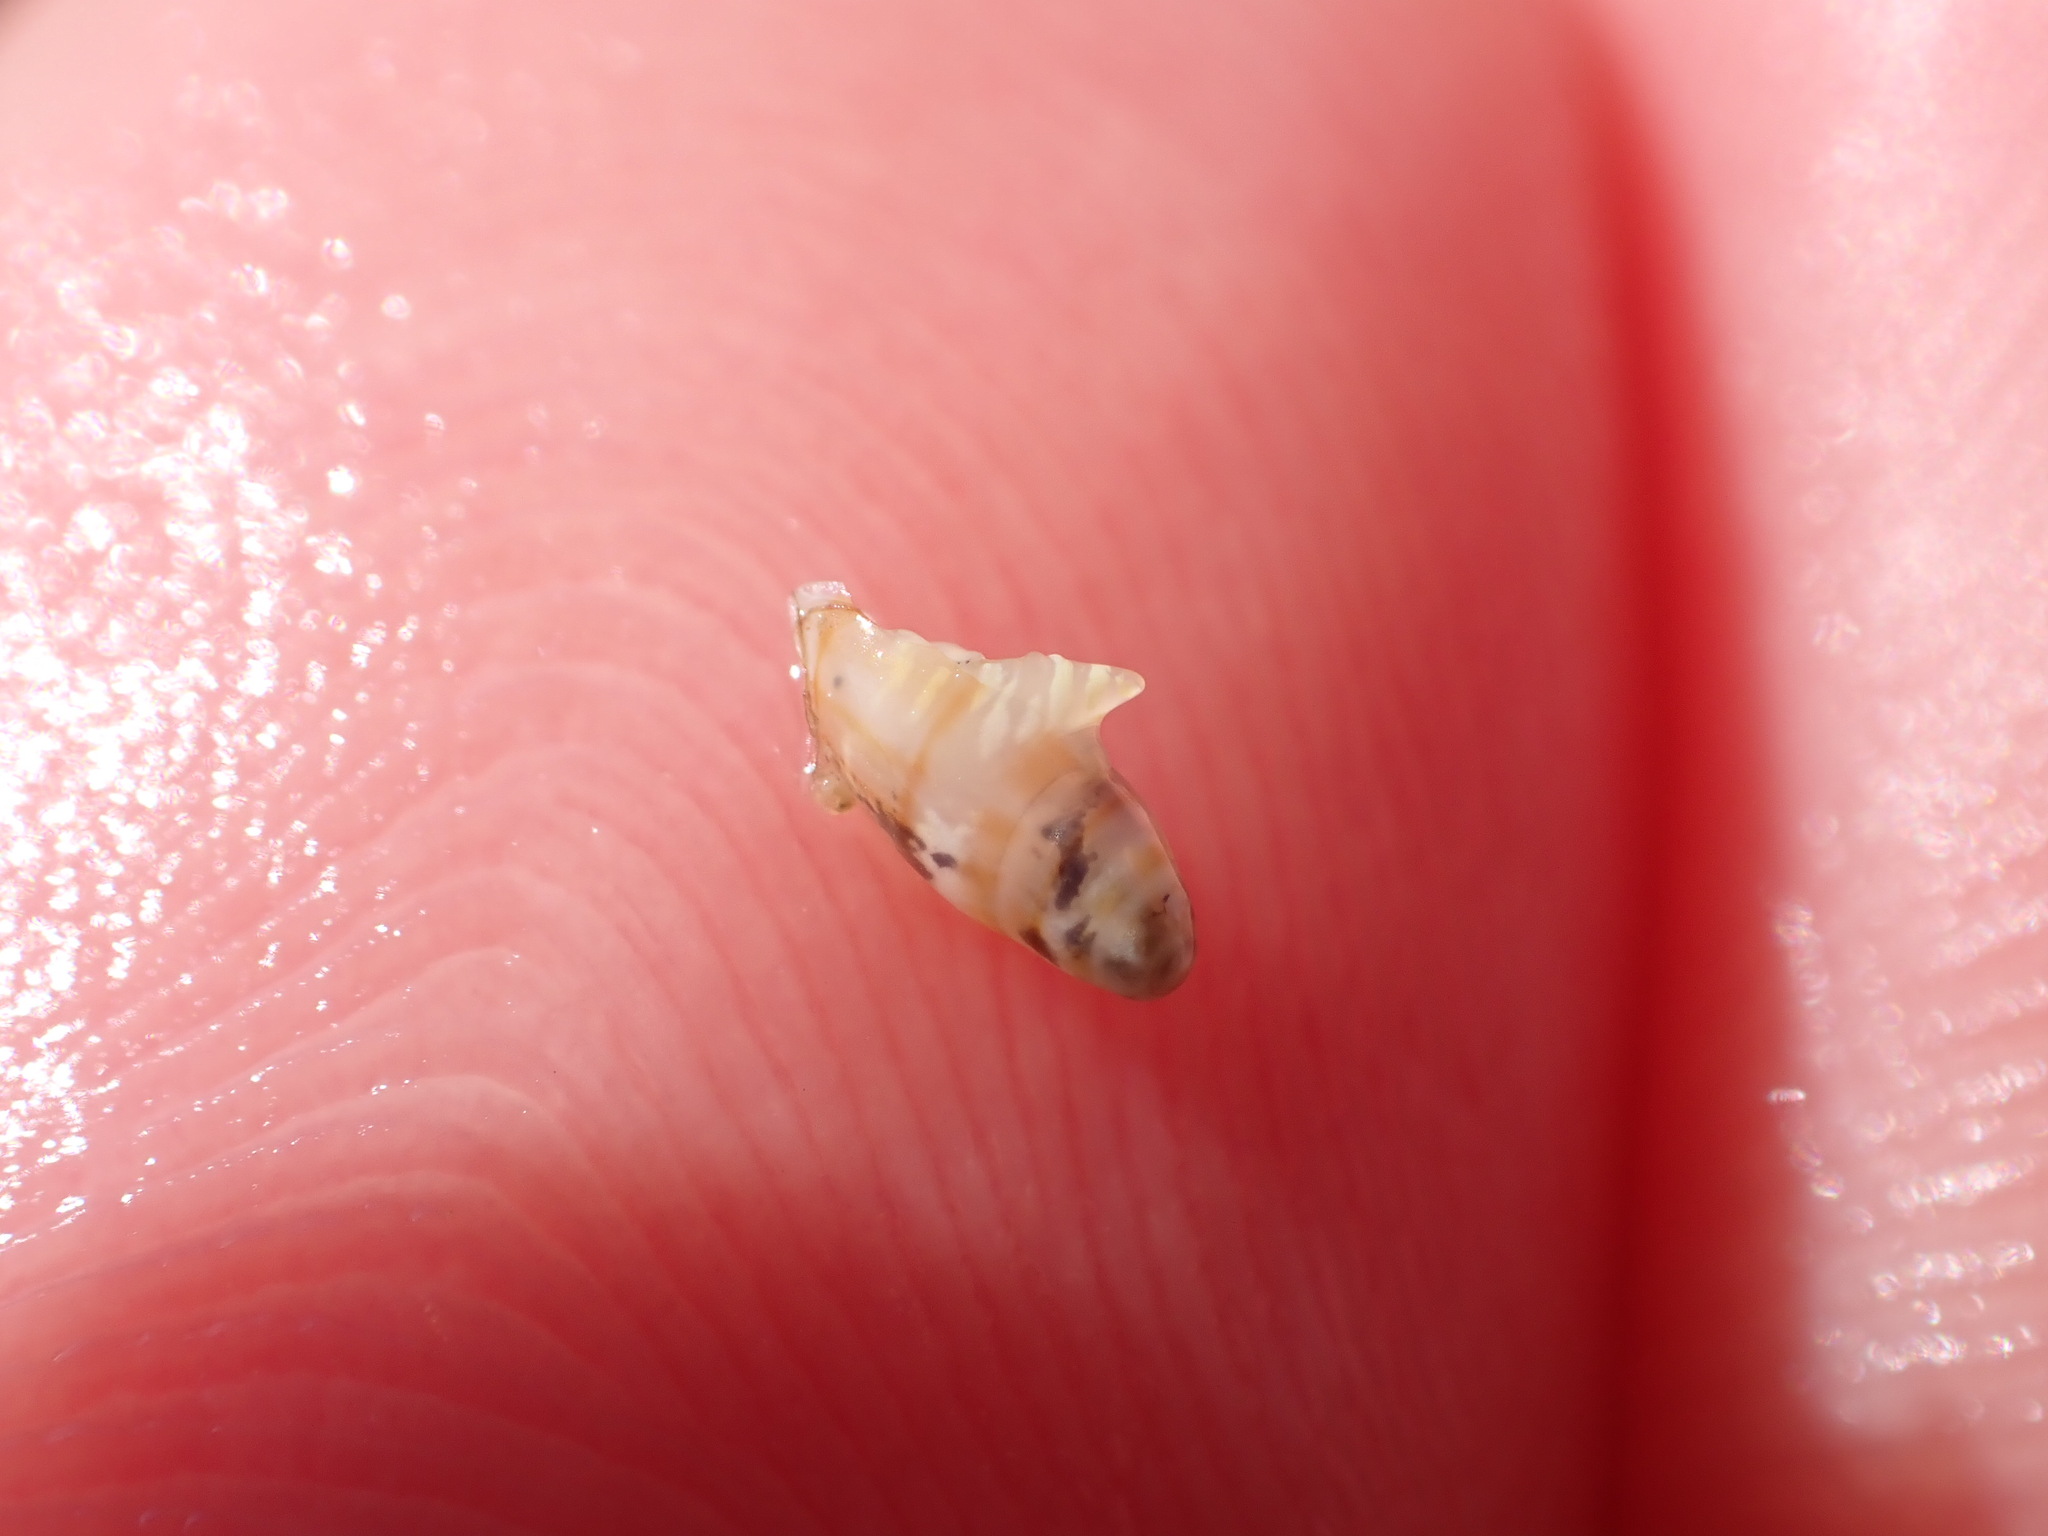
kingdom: Animalia
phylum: Mollusca
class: Gastropoda
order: Neogastropoda
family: Marginellidae
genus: Dentimargo
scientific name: Dentimargo cairoma
